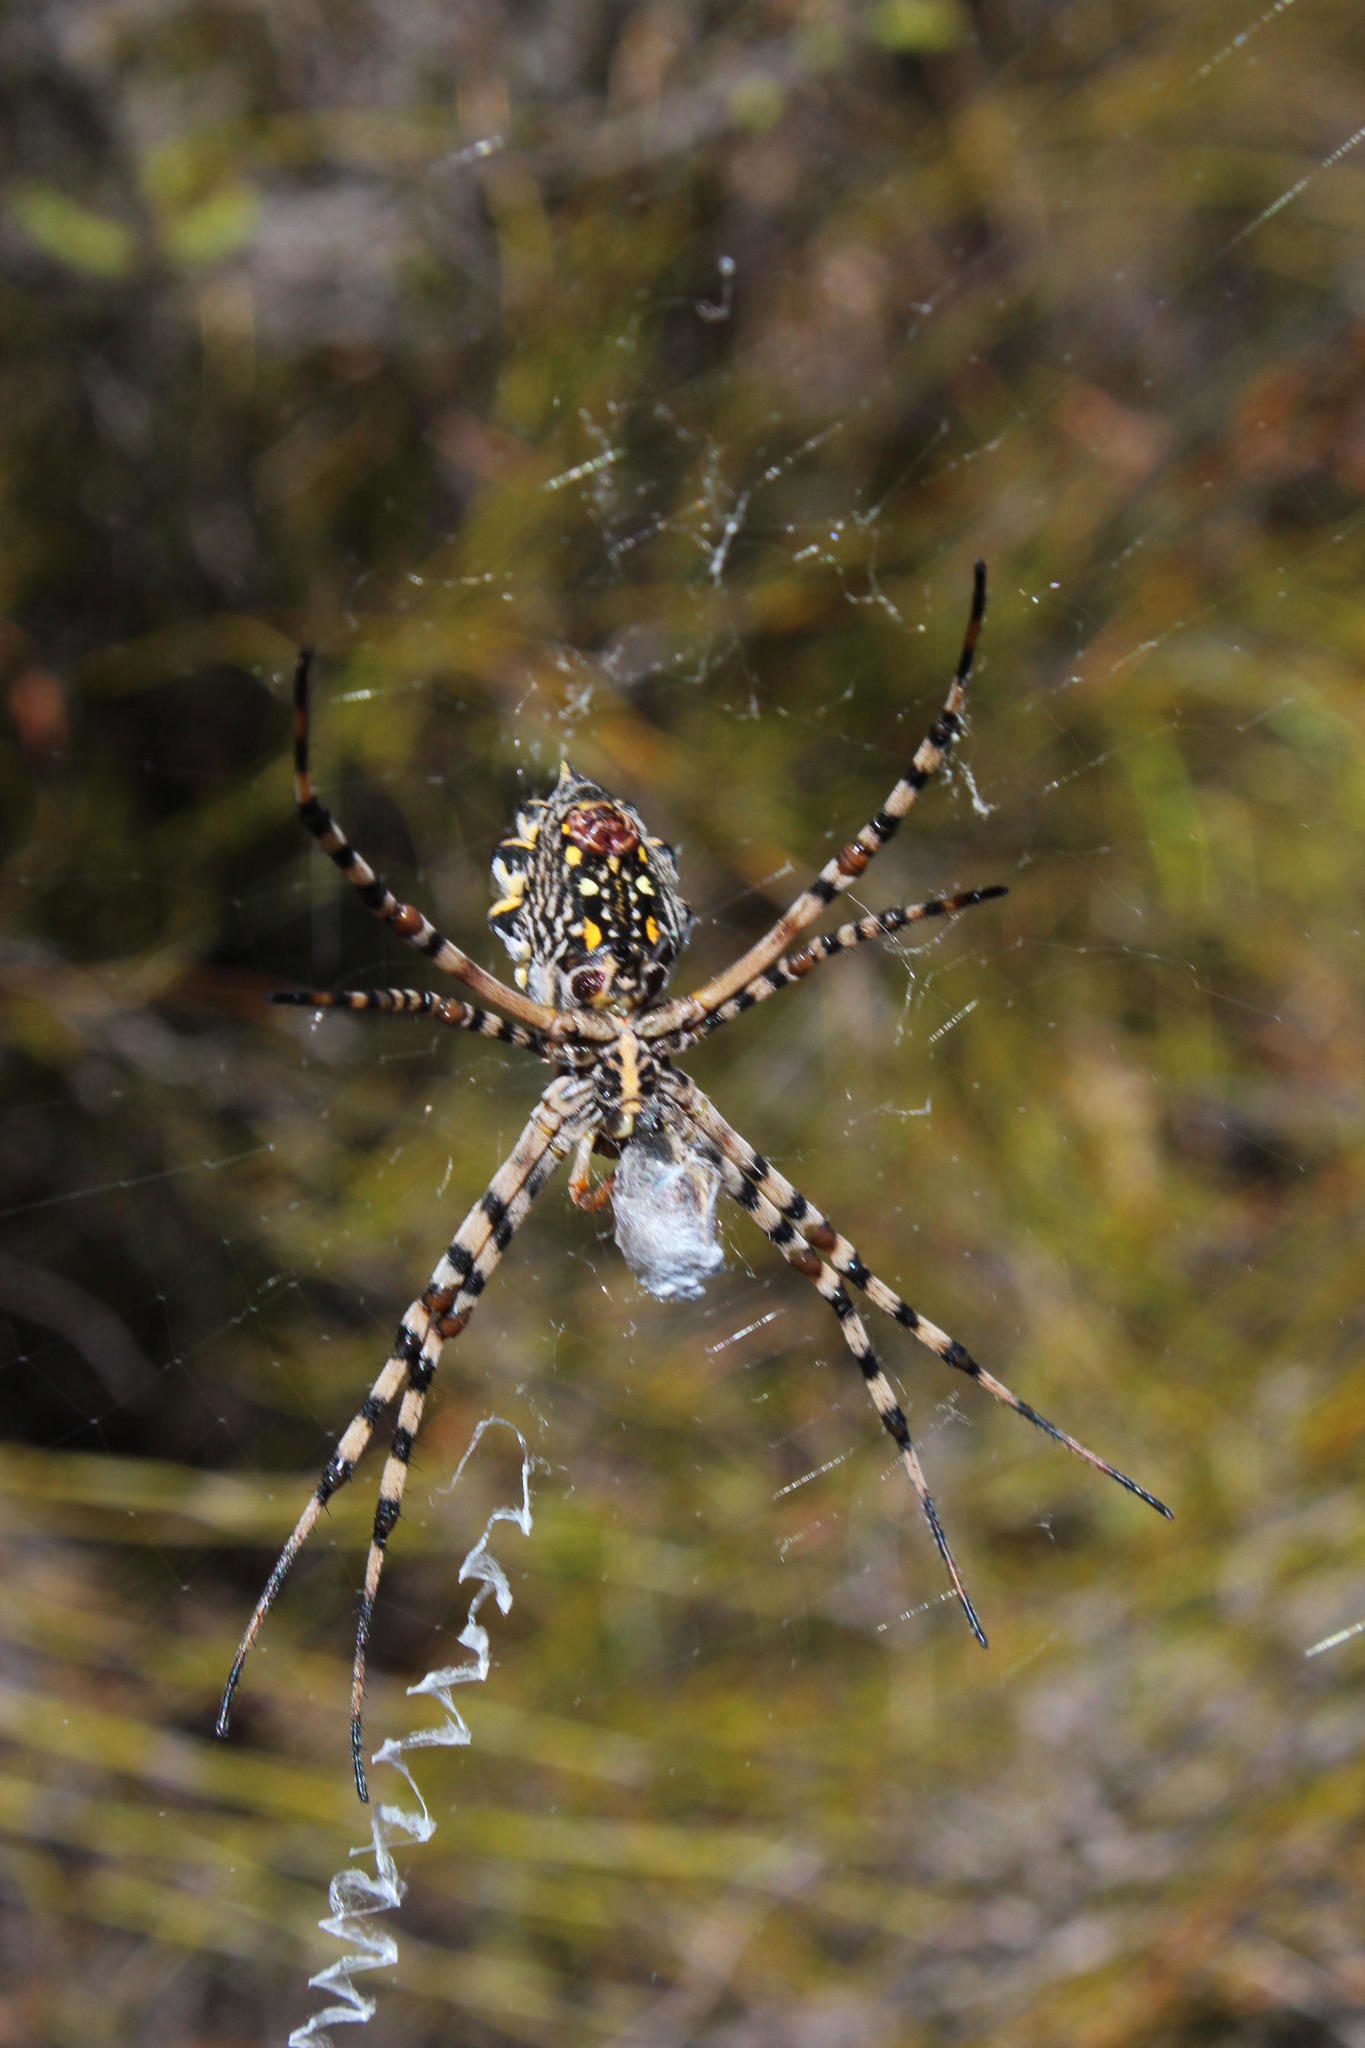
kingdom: Animalia
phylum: Arthropoda
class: Arachnida
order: Araneae
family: Araneidae
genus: Argiope
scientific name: Argiope australis
